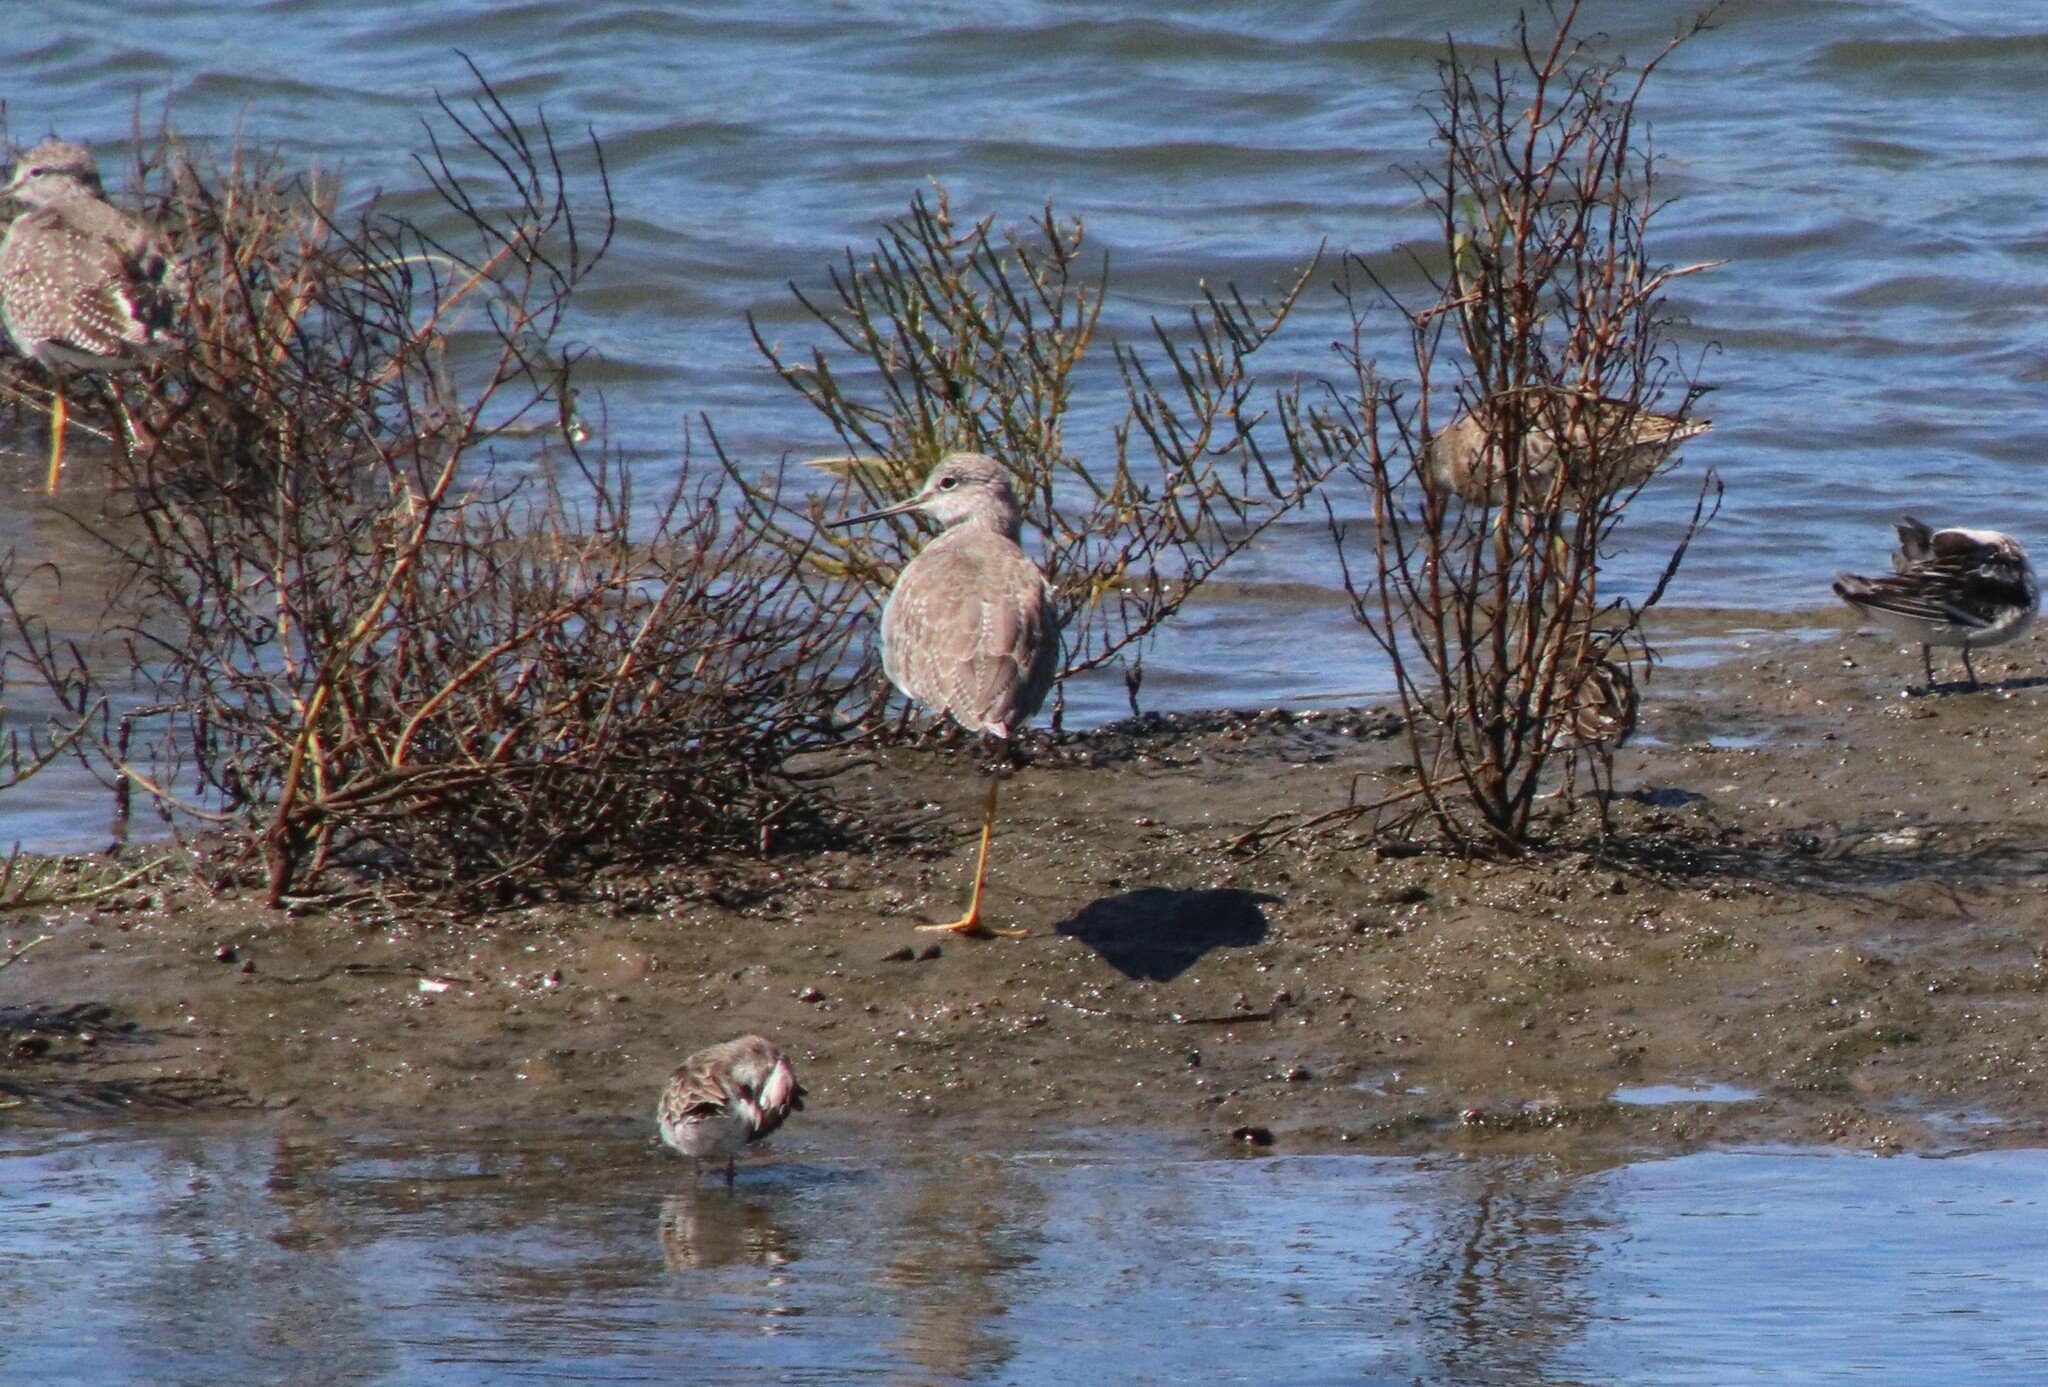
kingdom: Animalia
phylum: Chordata
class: Aves
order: Charadriiformes
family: Scolopacidae
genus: Tringa
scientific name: Tringa melanoleuca
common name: Greater yellowlegs
